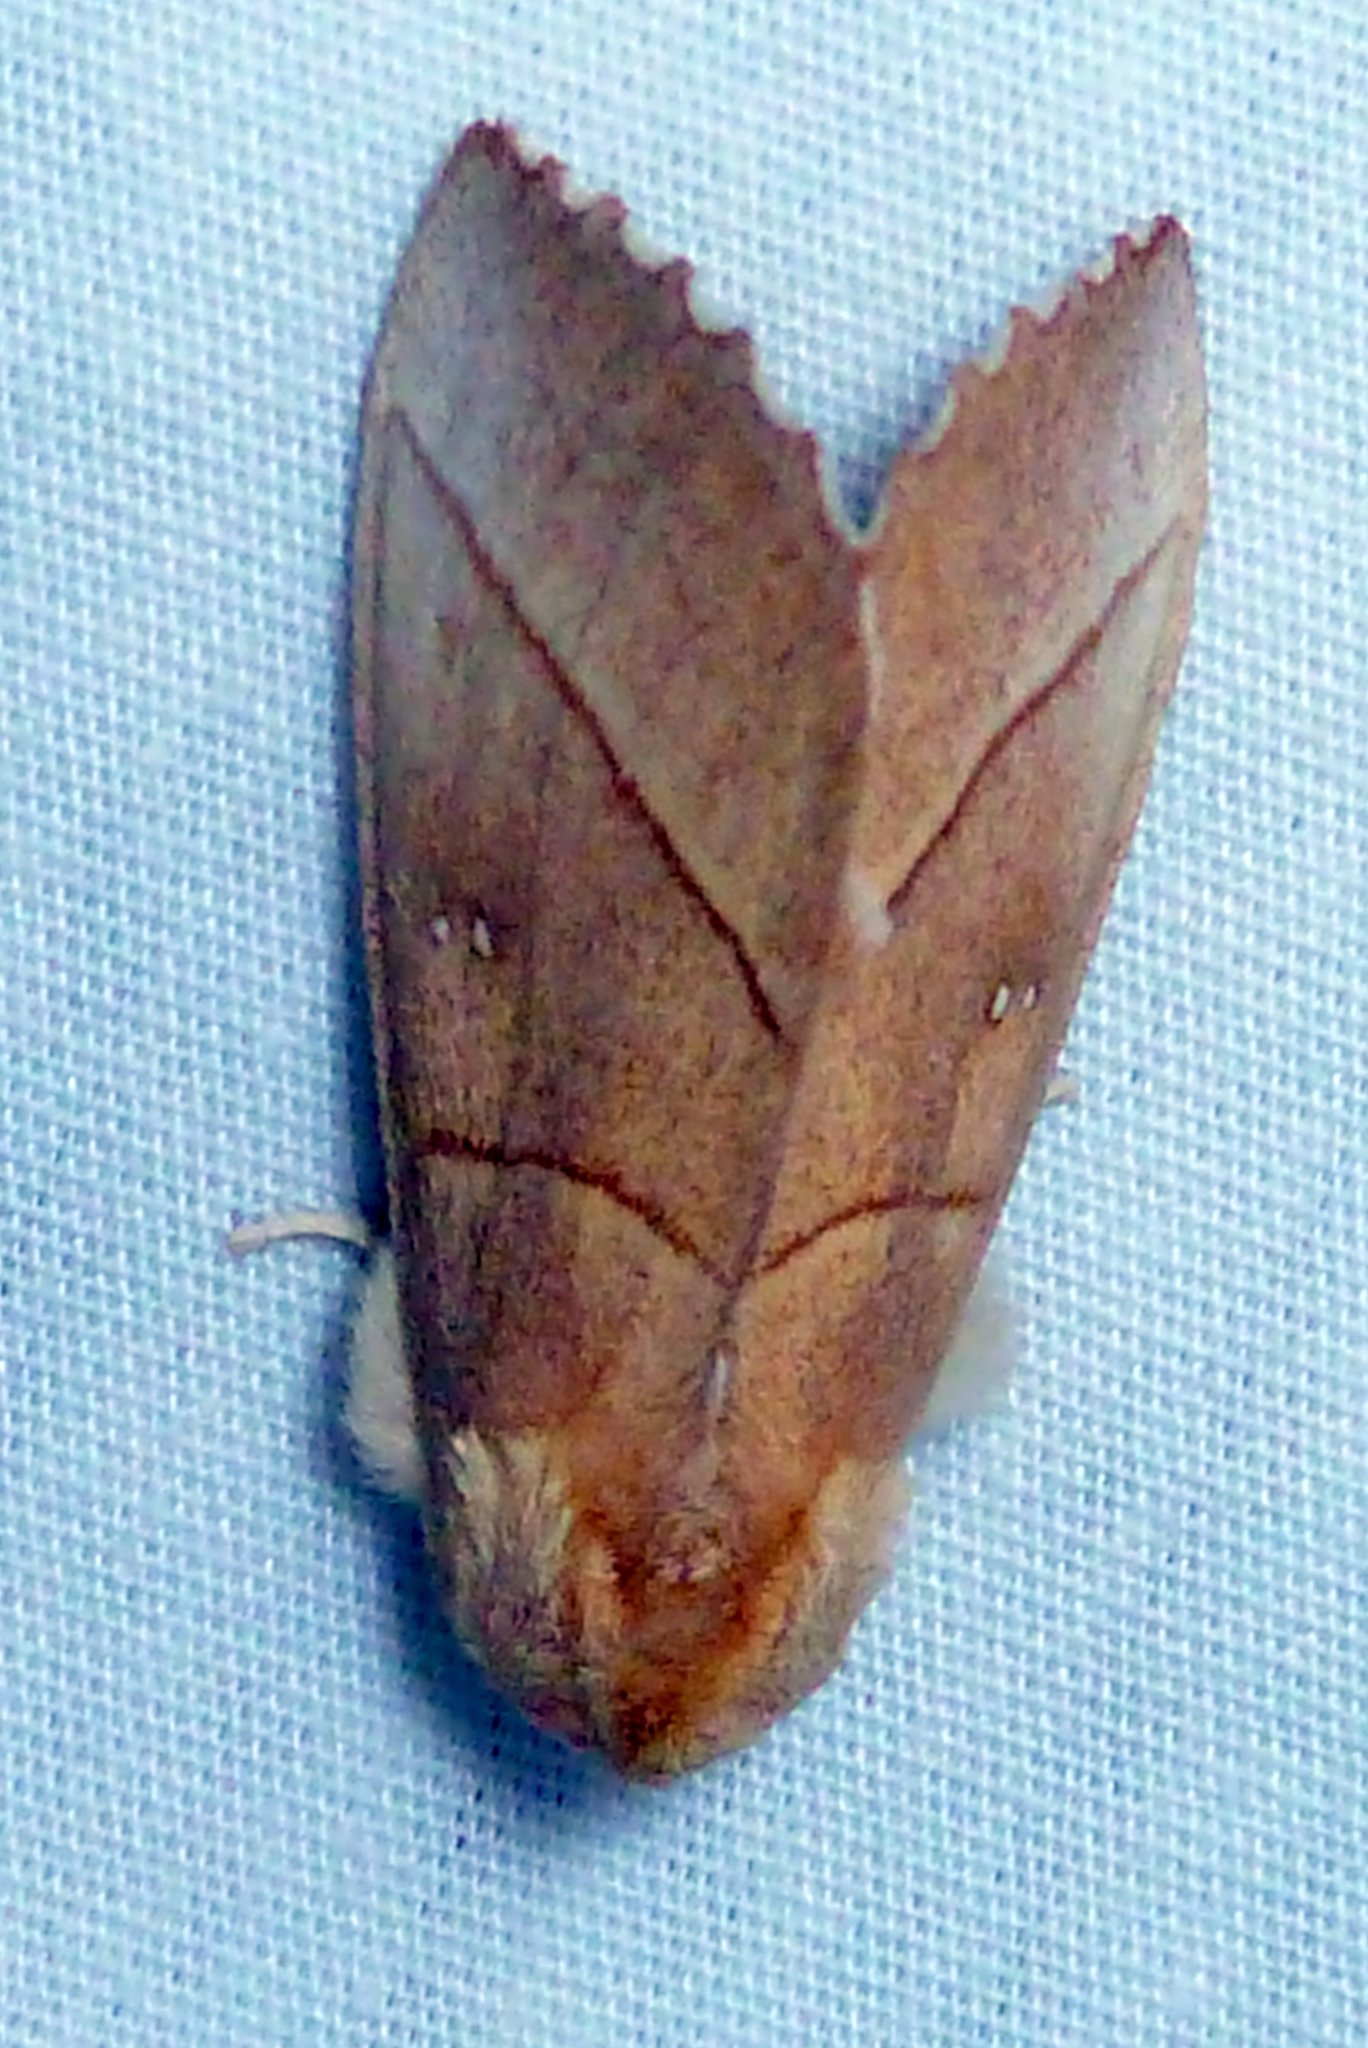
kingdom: Animalia
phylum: Arthropoda
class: Insecta
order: Lepidoptera
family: Notodontidae
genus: Nadata
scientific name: Nadata gibbosa
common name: White-dotted prominent
